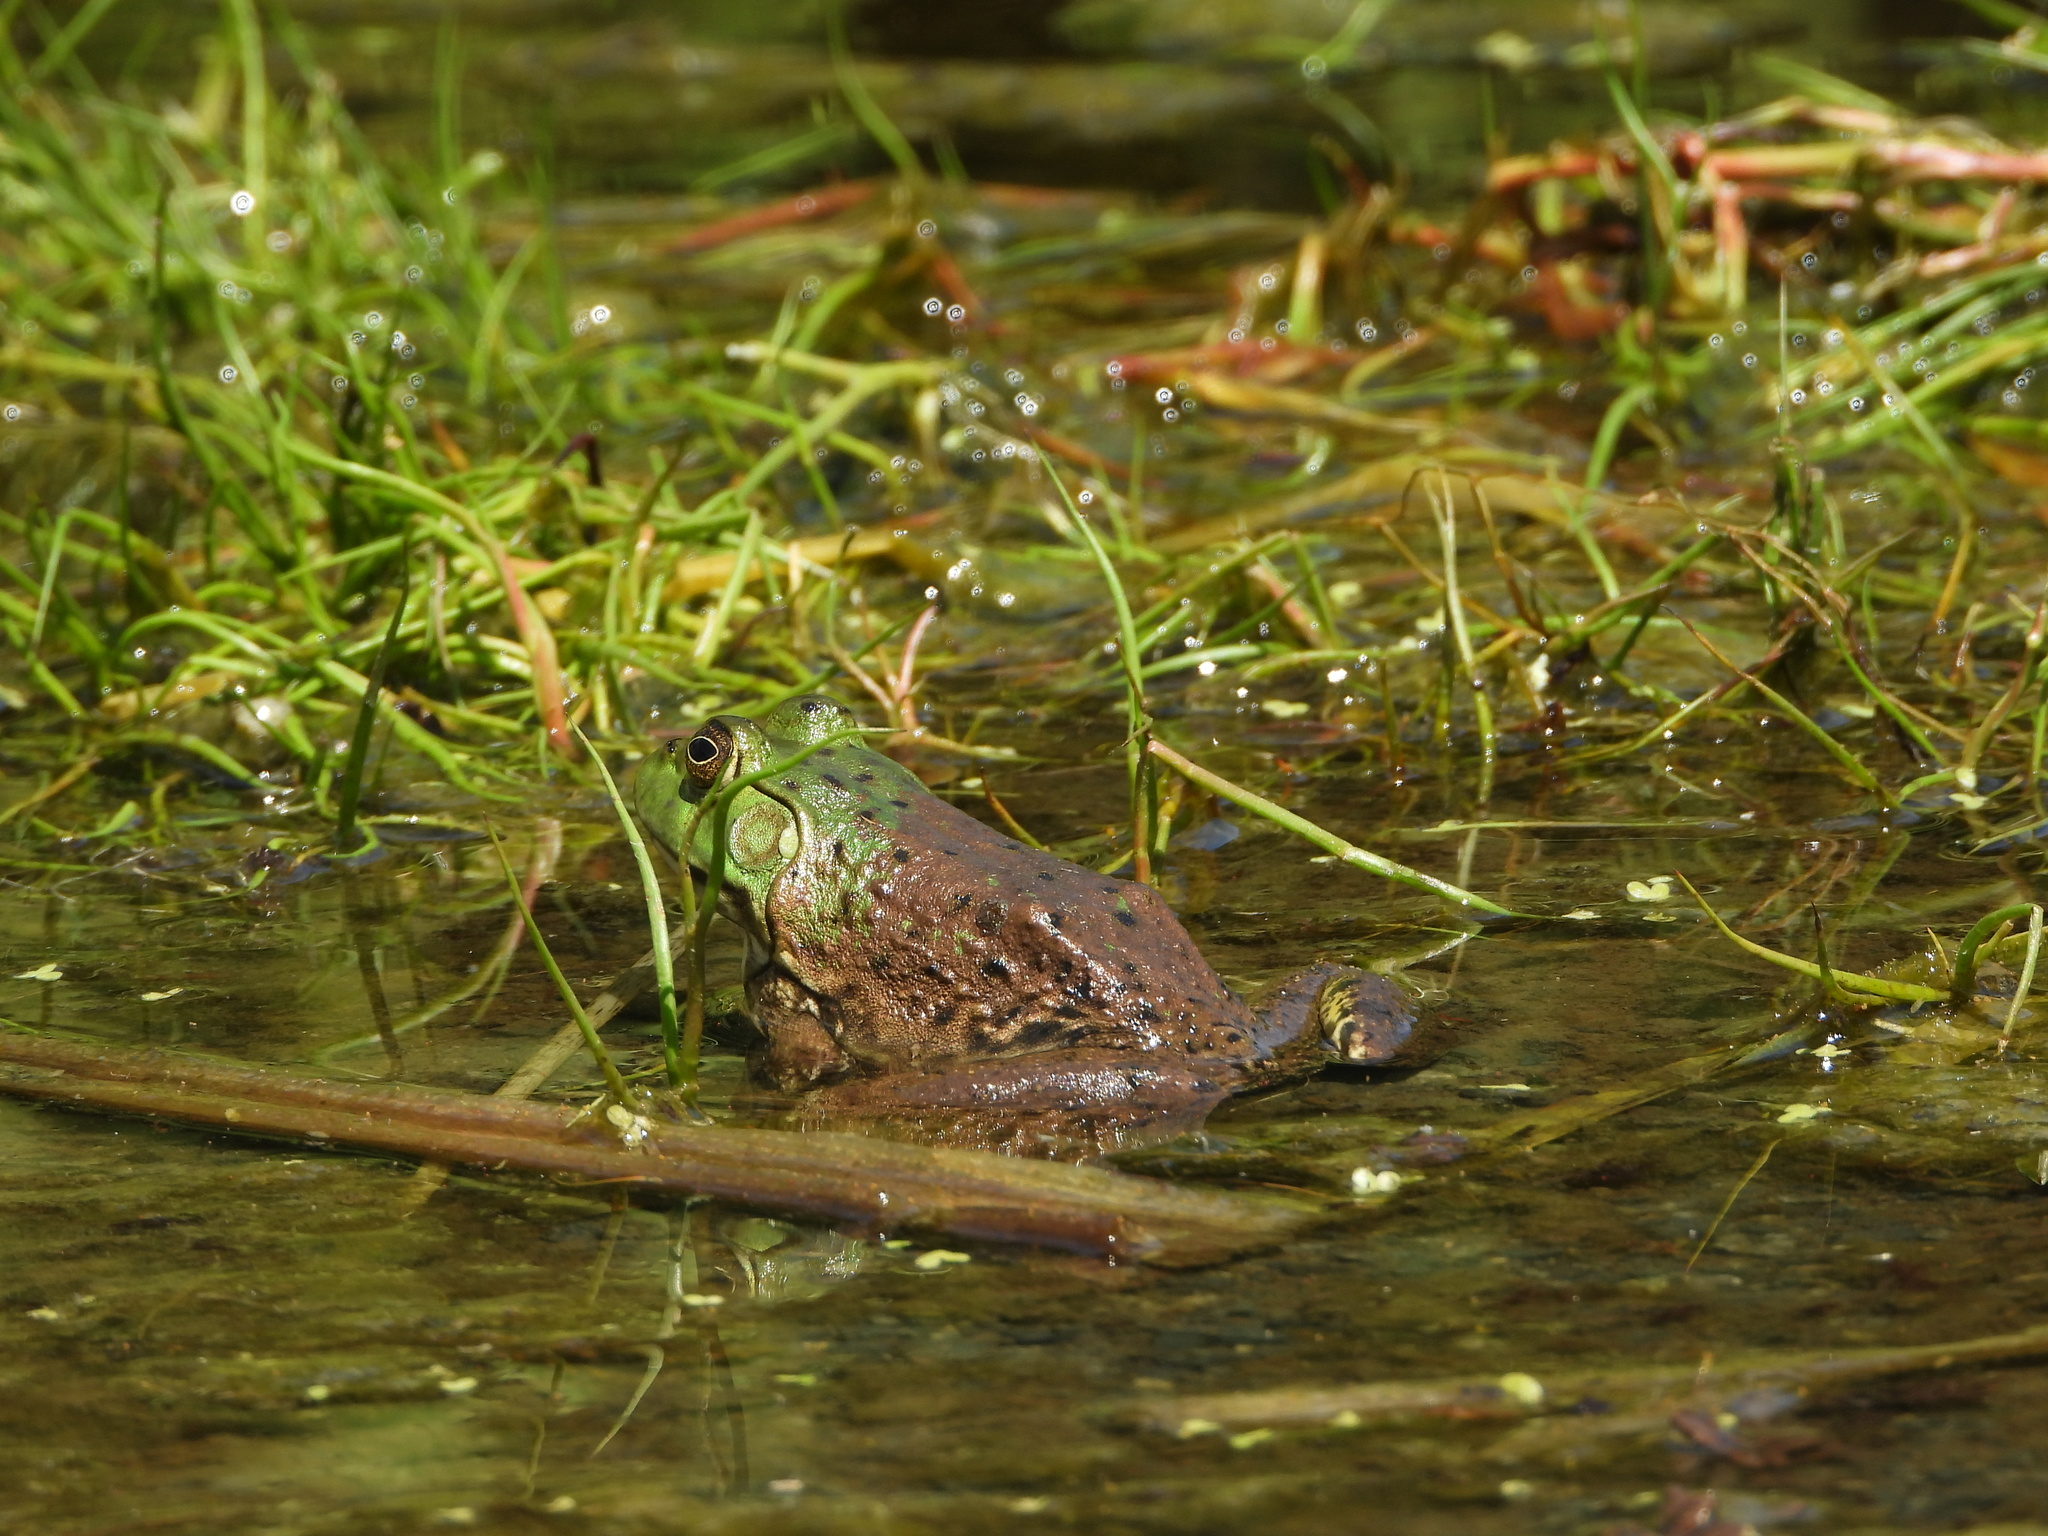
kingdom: Animalia
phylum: Chordata
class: Amphibia
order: Anura
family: Ranidae
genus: Lithobates
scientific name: Lithobates catesbeianus
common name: American bullfrog
